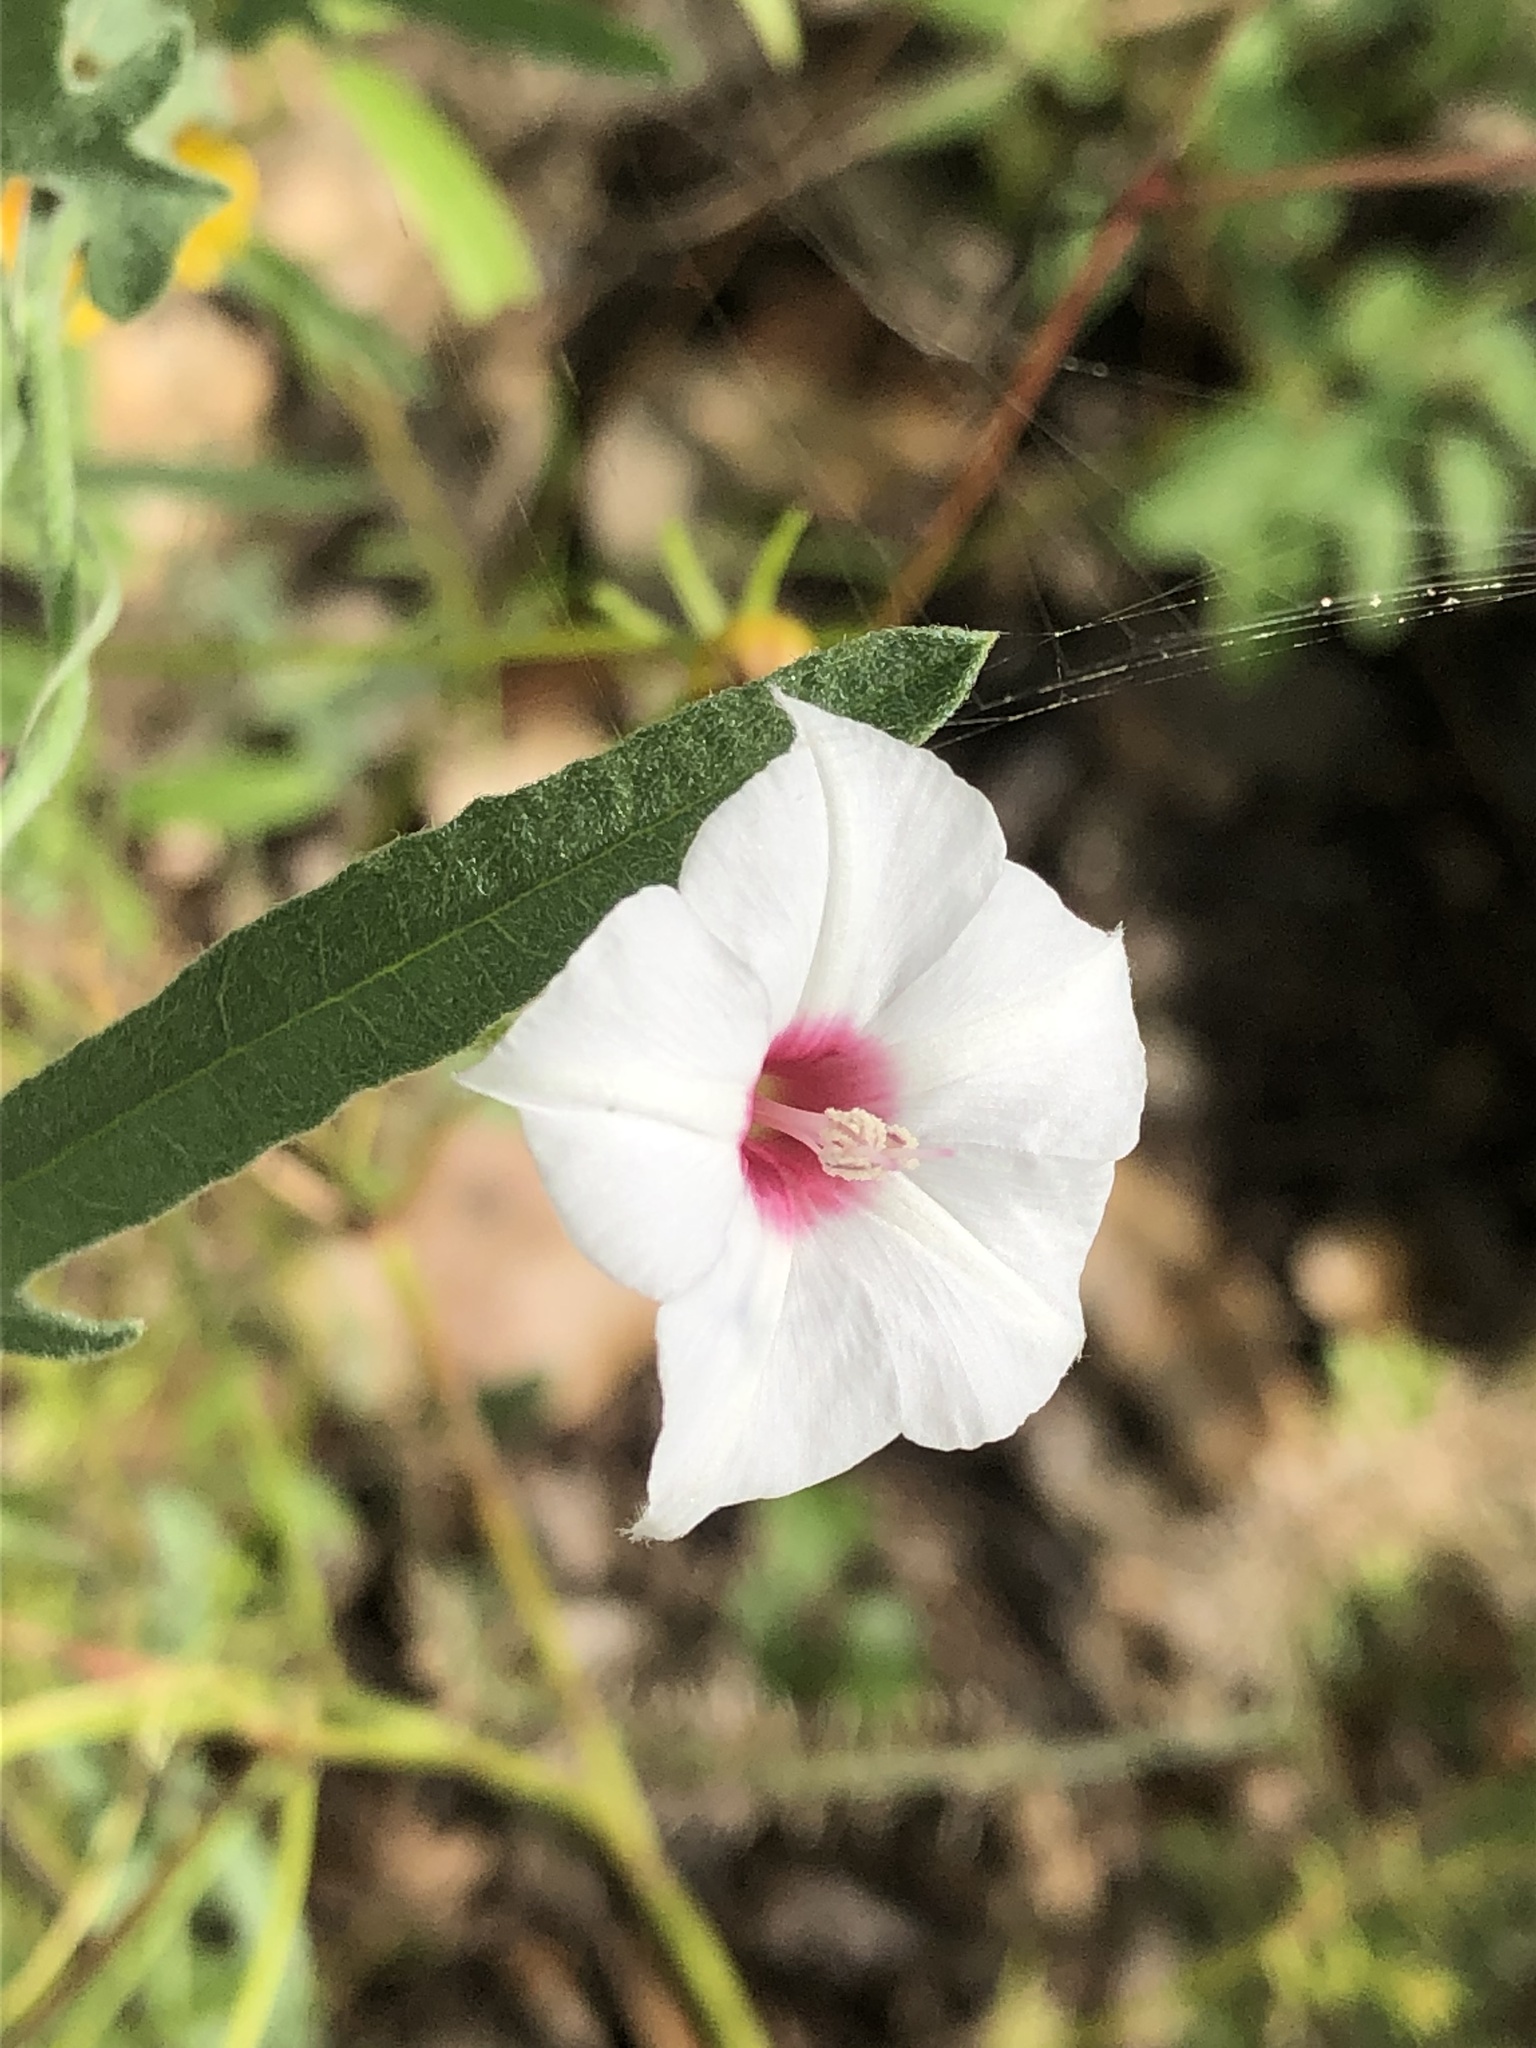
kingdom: Plantae
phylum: Tracheophyta
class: Magnoliopsida
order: Solanales
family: Convolvulaceae
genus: Convolvulus
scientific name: Convolvulus equitans
